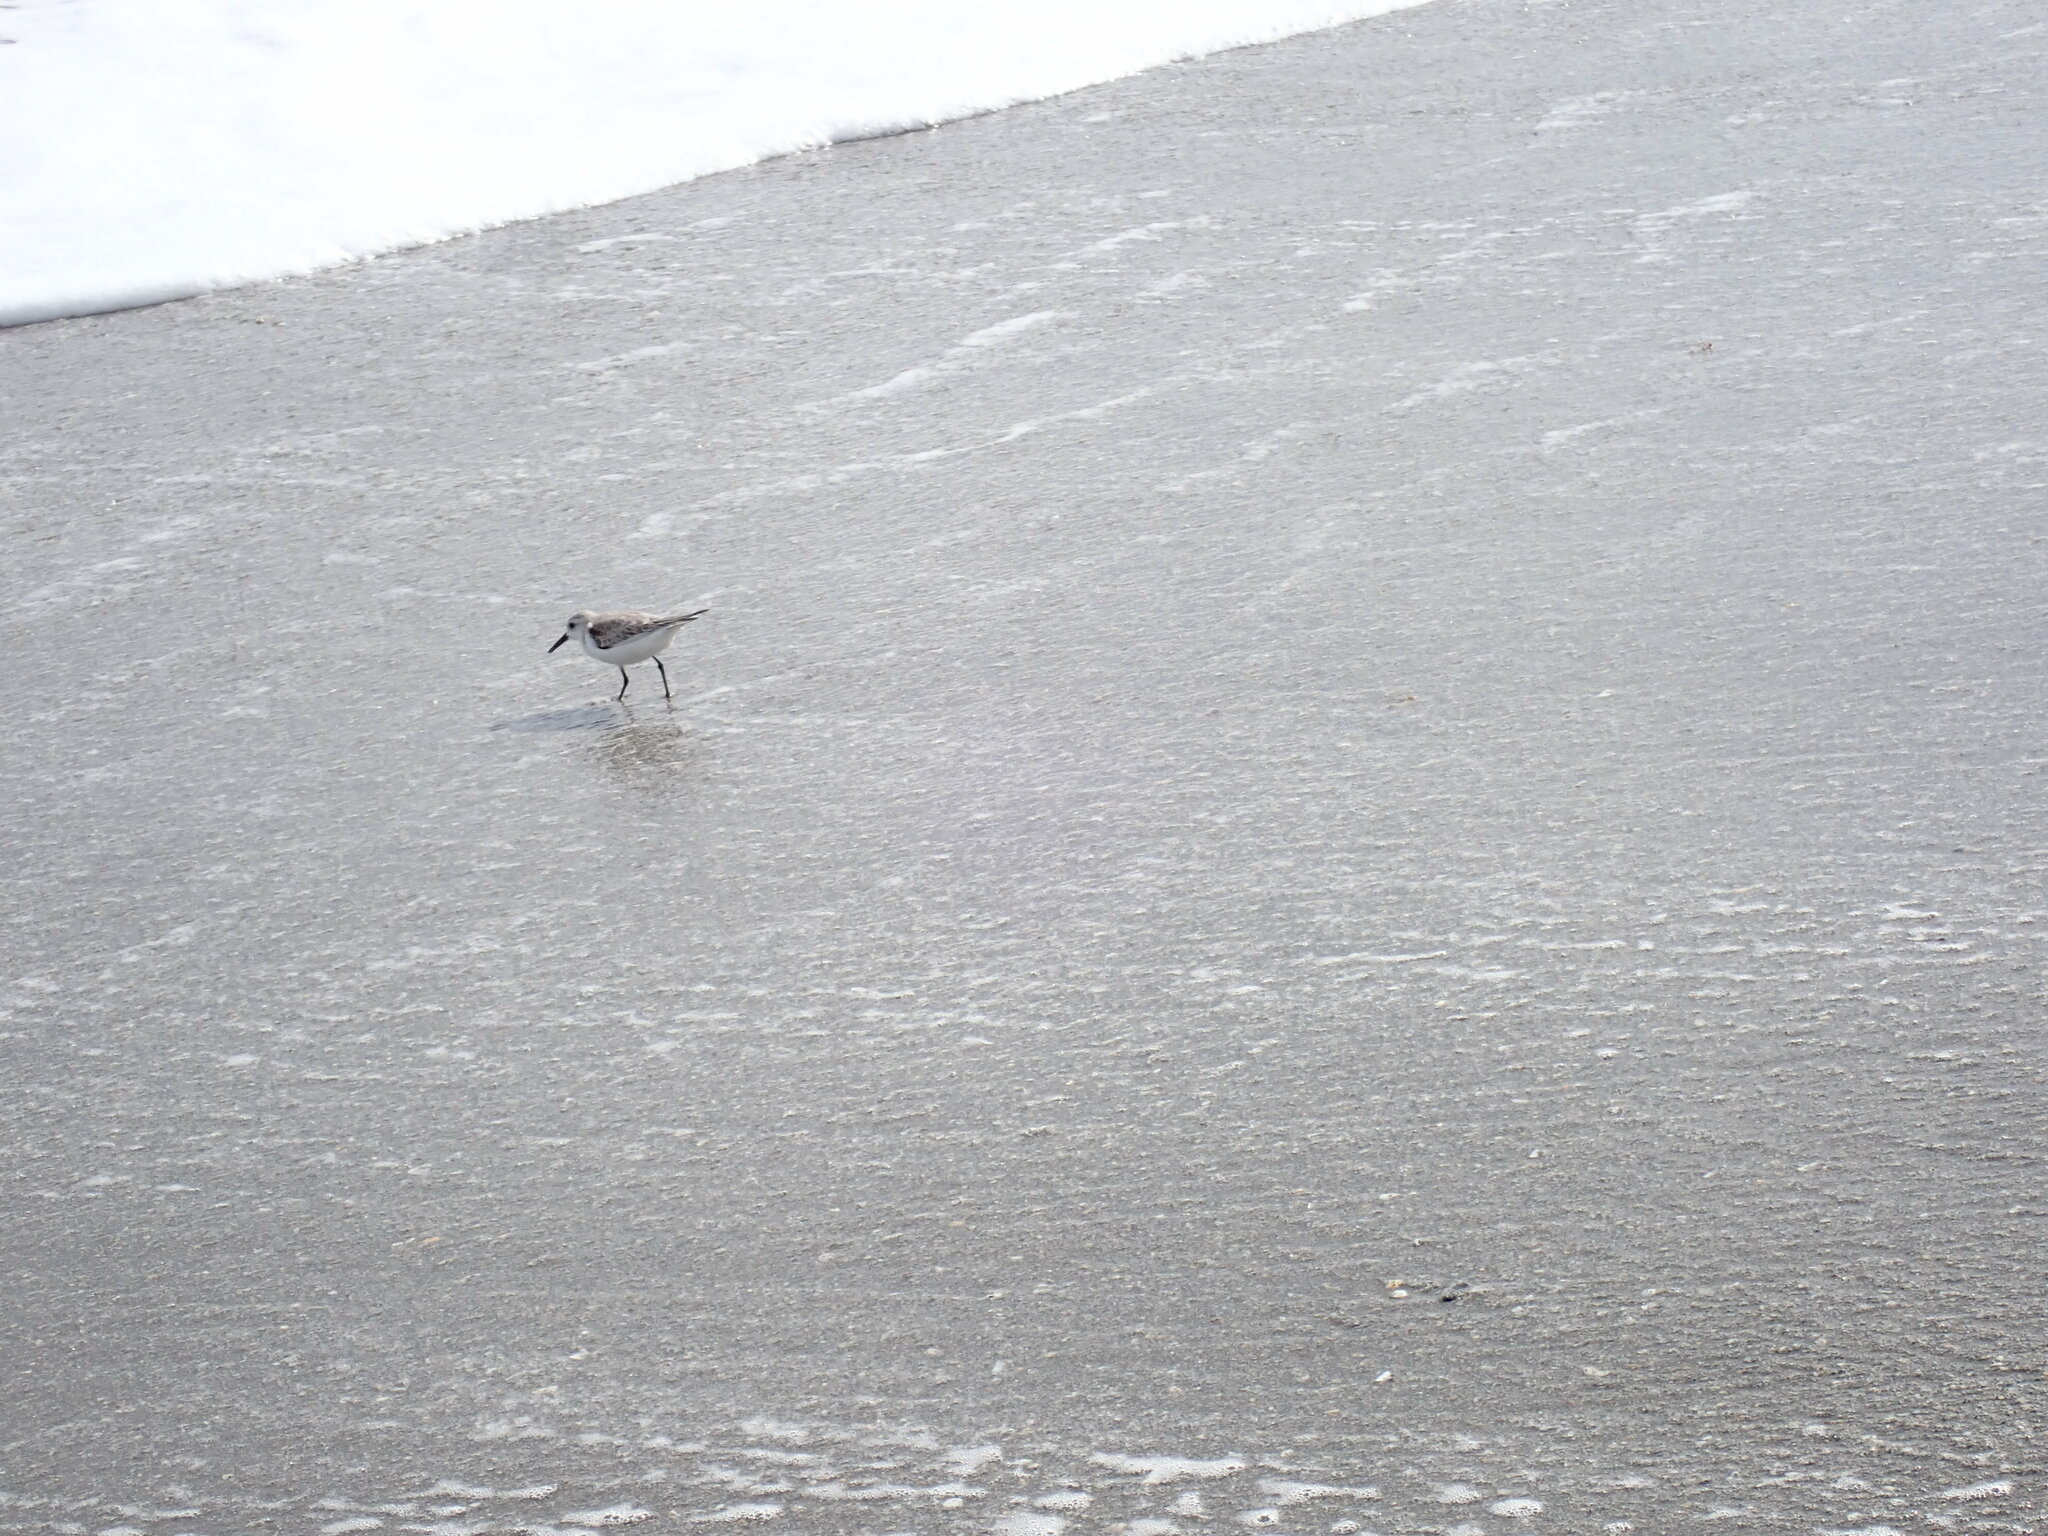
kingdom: Animalia
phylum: Chordata
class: Aves
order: Charadriiformes
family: Scolopacidae
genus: Calidris
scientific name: Calidris alba
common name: Sanderling
